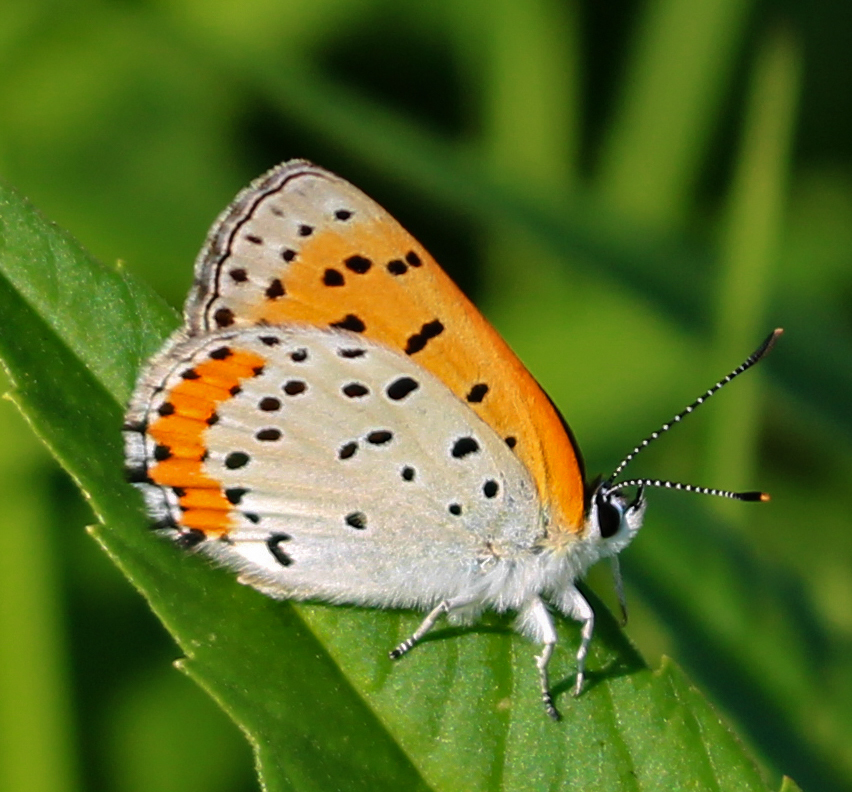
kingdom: Animalia
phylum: Arthropoda
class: Insecta
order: Lepidoptera
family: Lycaenidae
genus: Tharsalea
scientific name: Tharsalea hyllus
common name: Bronze copper
